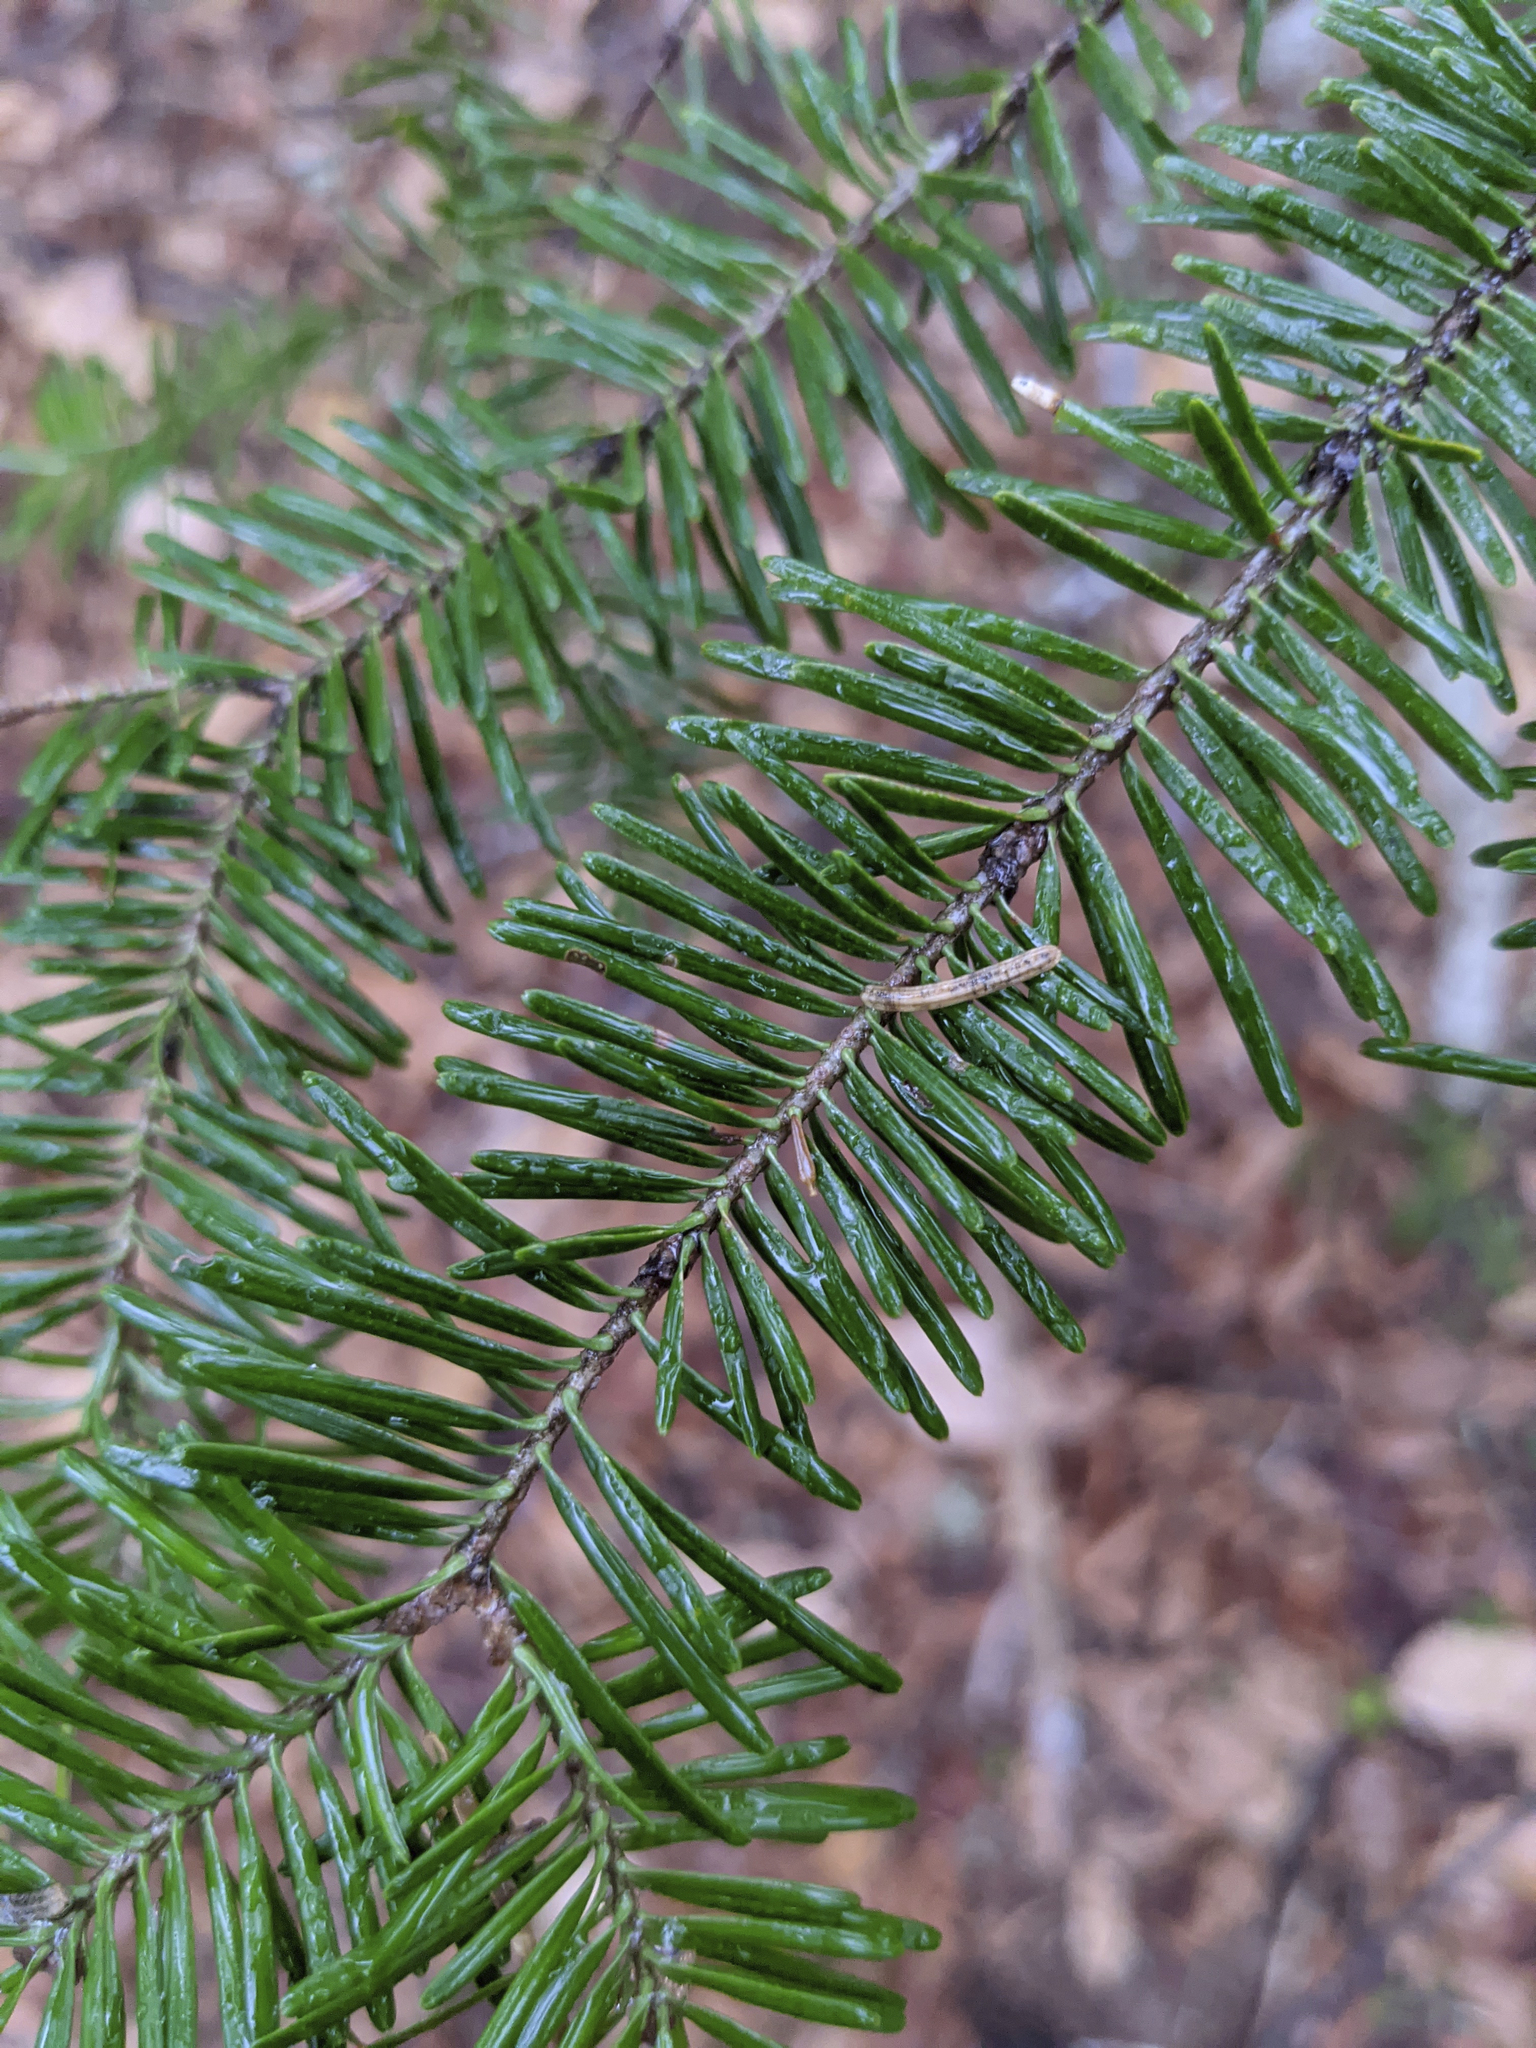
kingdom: Plantae
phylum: Tracheophyta
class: Pinopsida
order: Pinales
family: Pinaceae
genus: Abies
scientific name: Abies balsamea
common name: Balsam fir
